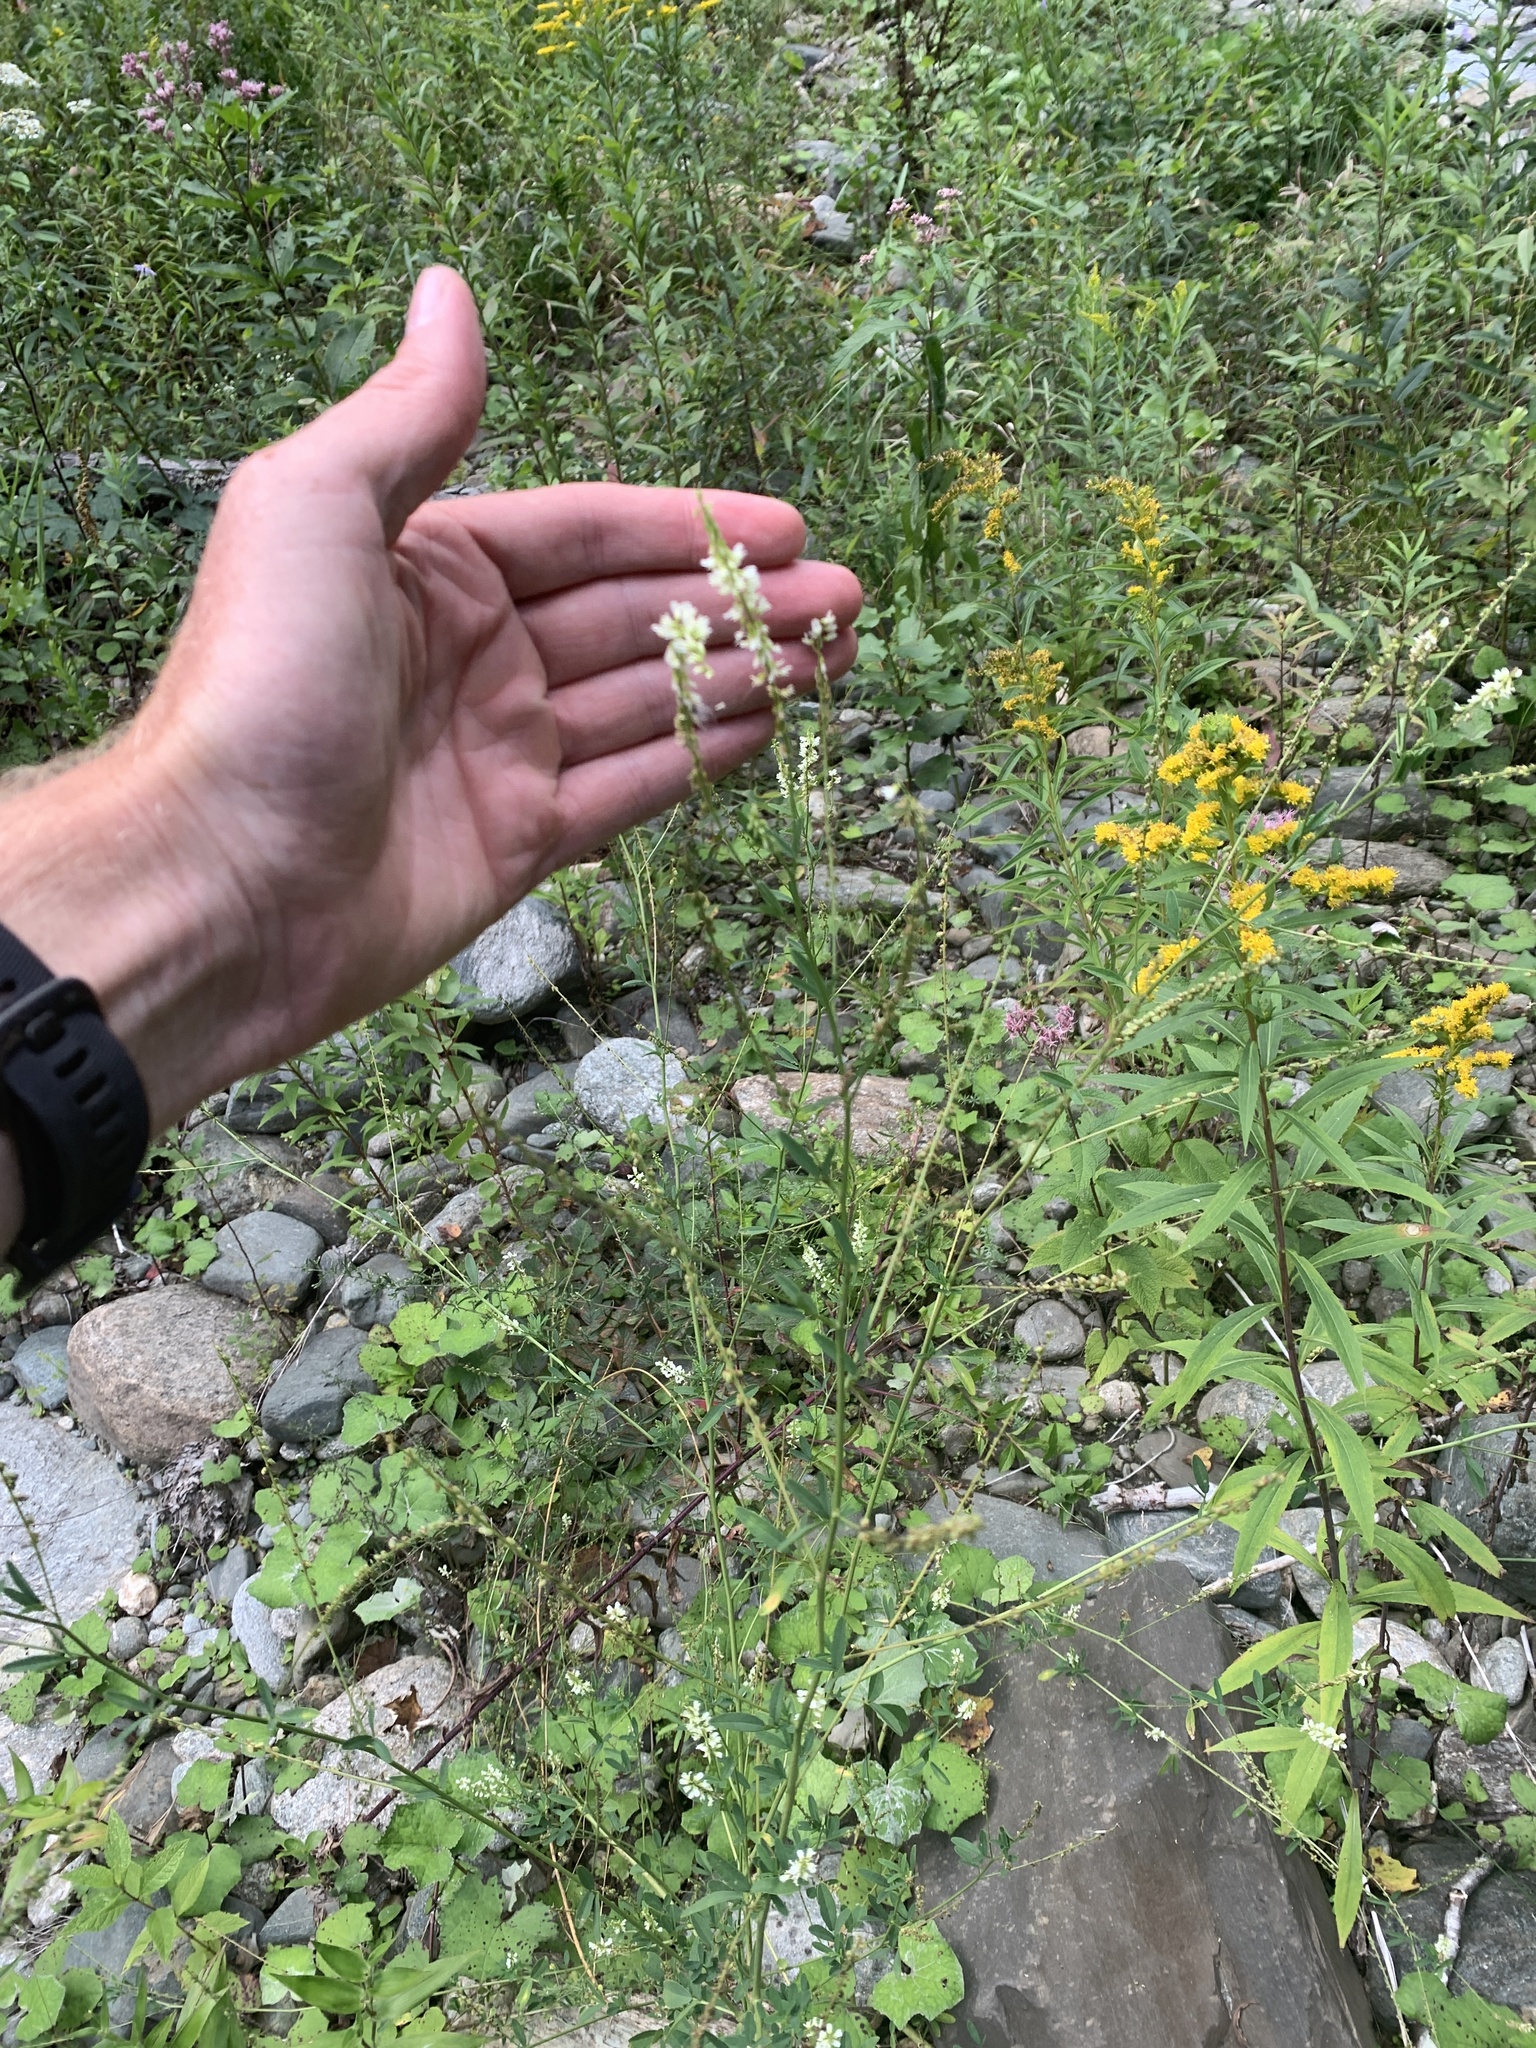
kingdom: Plantae
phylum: Tracheophyta
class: Magnoliopsida
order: Fabales
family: Fabaceae
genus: Melilotus
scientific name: Melilotus albus
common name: White melilot
